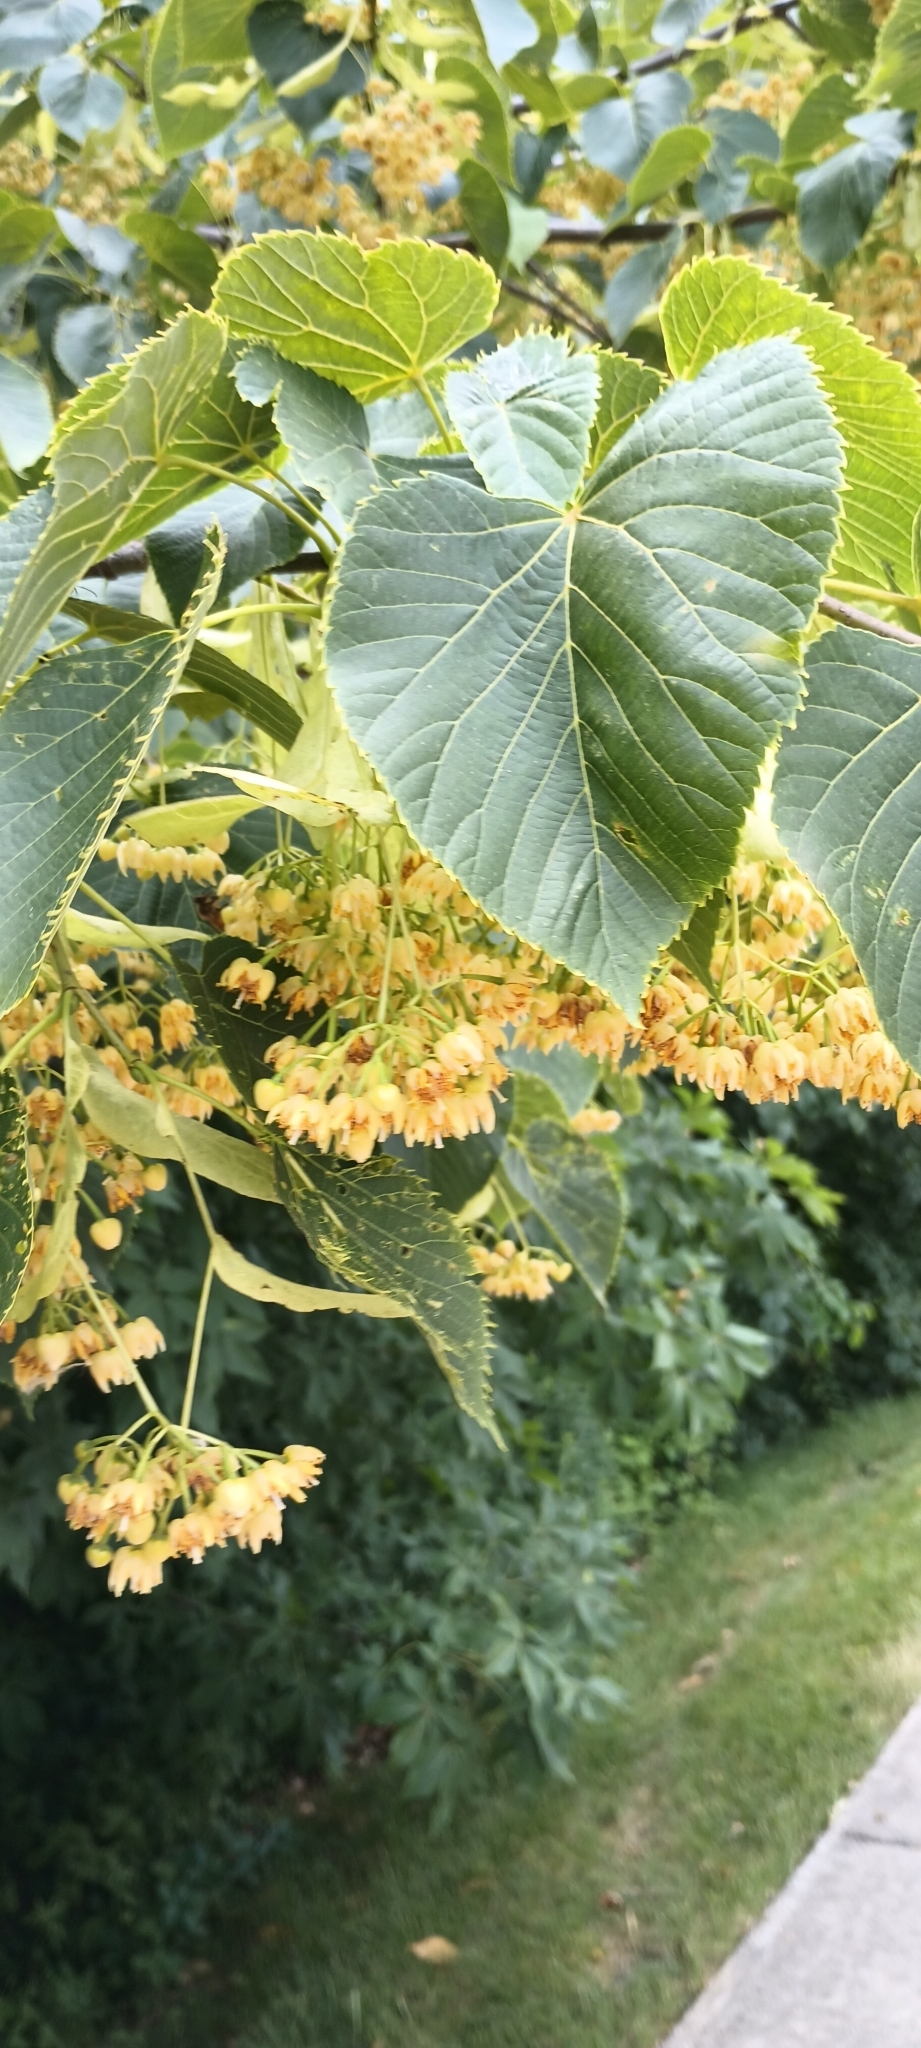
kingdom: Plantae
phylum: Tracheophyta
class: Magnoliopsida
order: Malvales
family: Malvaceae
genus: Tilia
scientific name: Tilia americana
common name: Basswood
